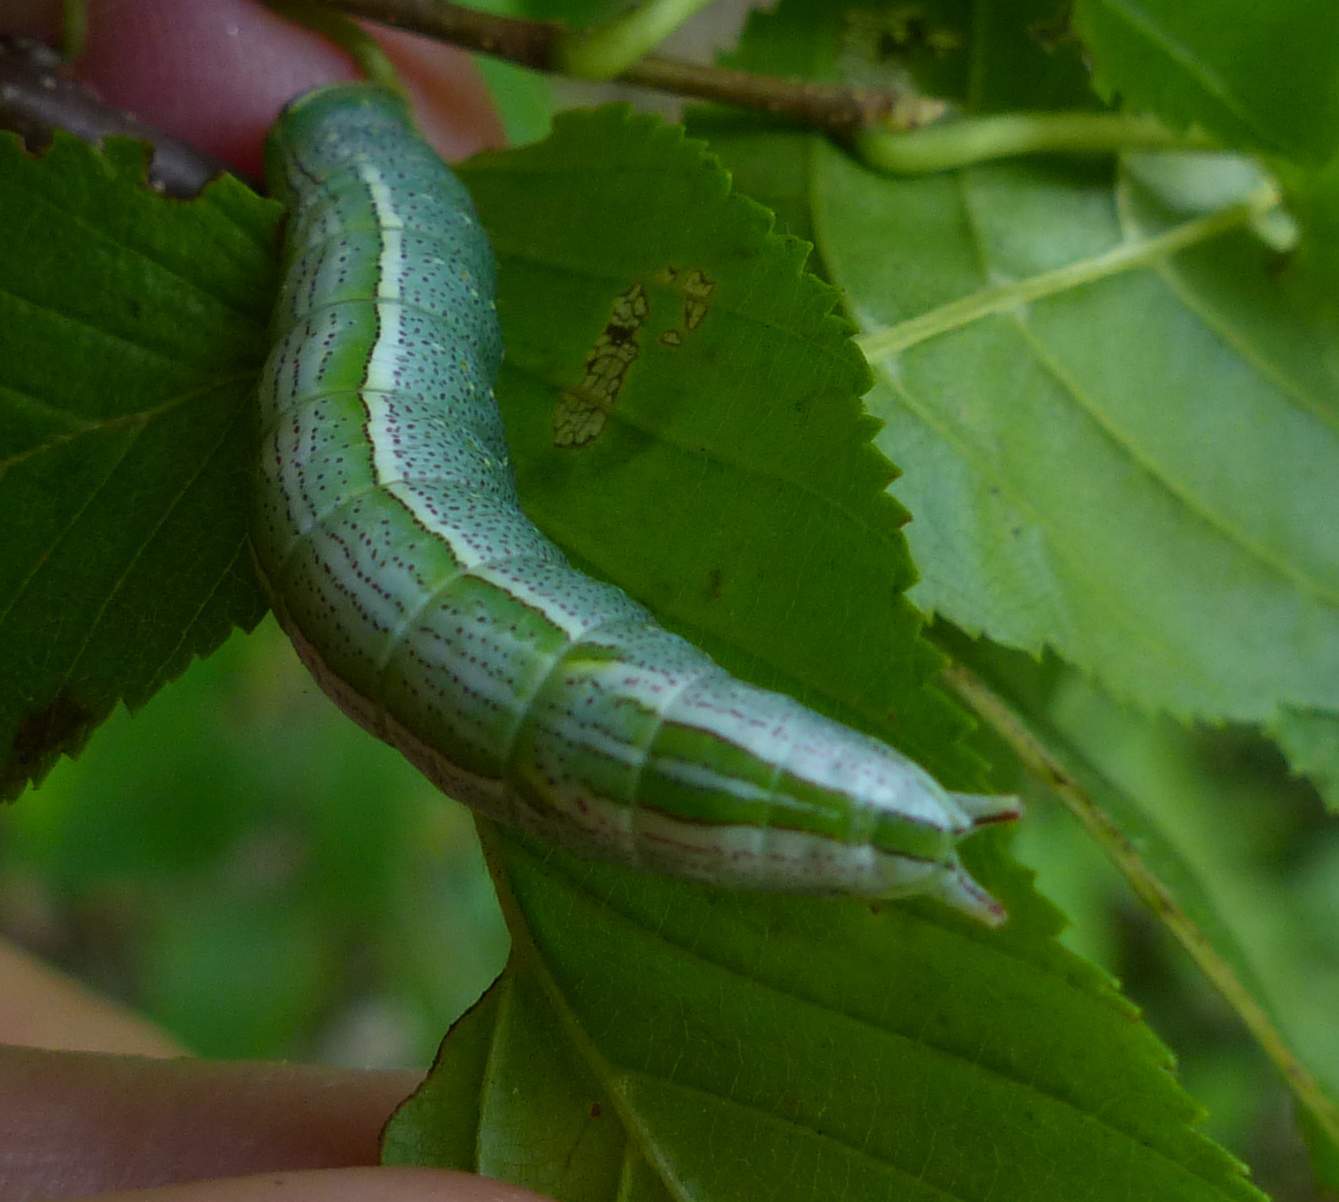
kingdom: Animalia
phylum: Arthropoda
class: Insecta
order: Lepidoptera
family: Notodontidae
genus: Disphragis
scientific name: Disphragis Cecrita guttivitta
